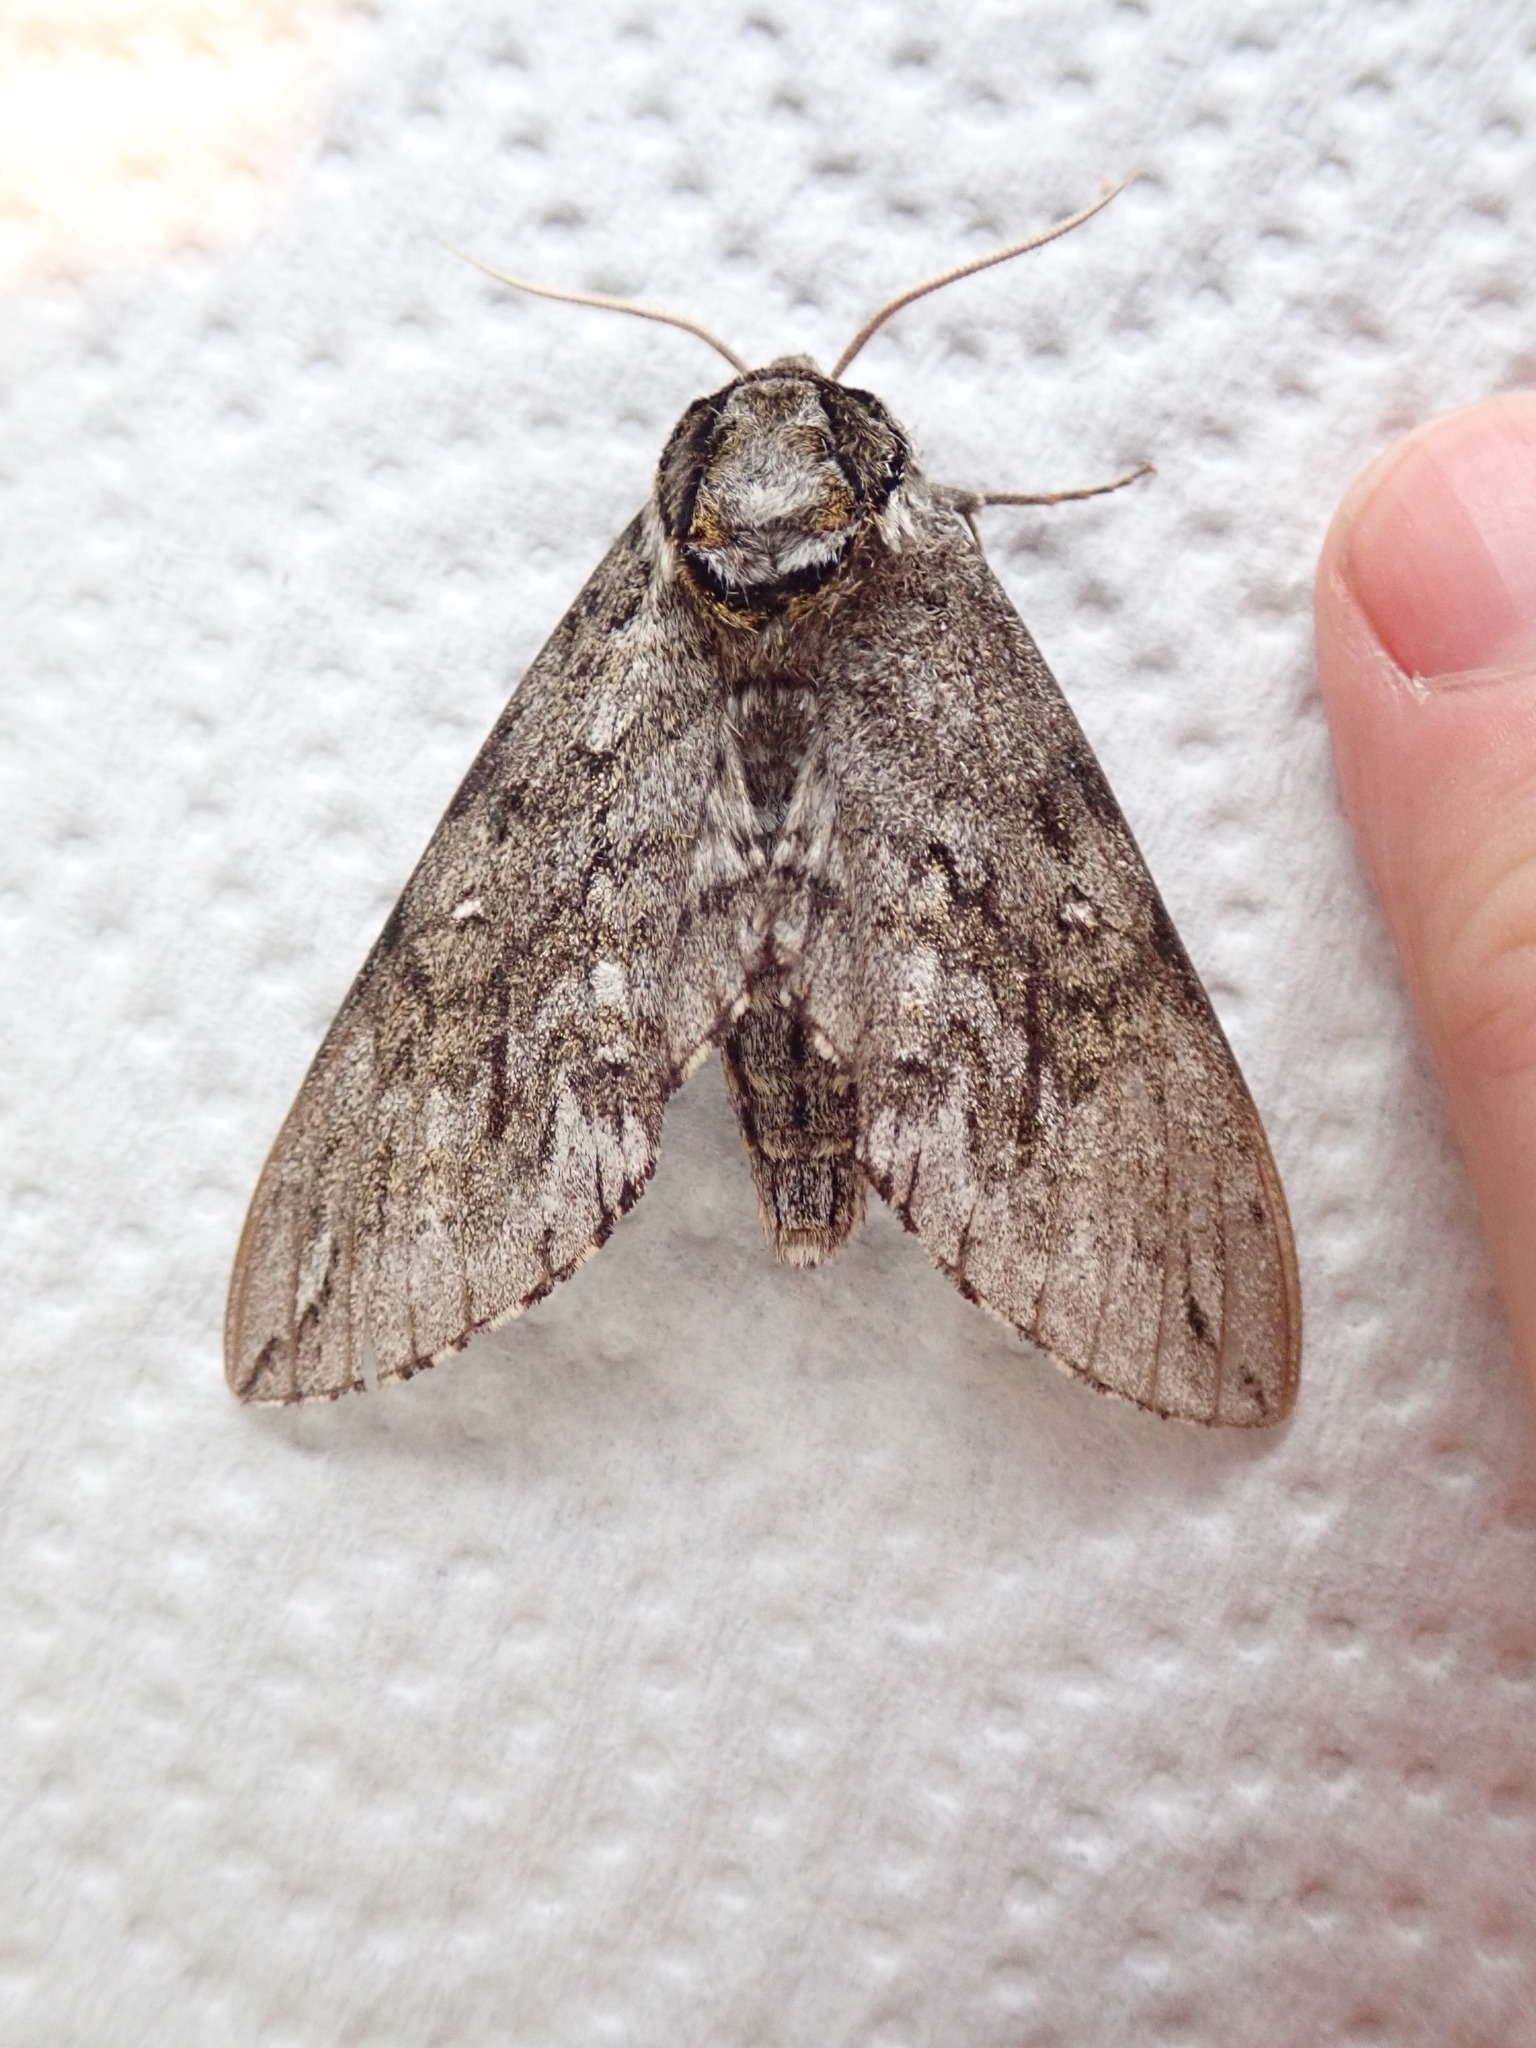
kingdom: Animalia
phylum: Arthropoda
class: Insecta
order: Lepidoptera
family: Sphingidae
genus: Ceratomia
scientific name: Ceratomia undulosa
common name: Waved sphinx
